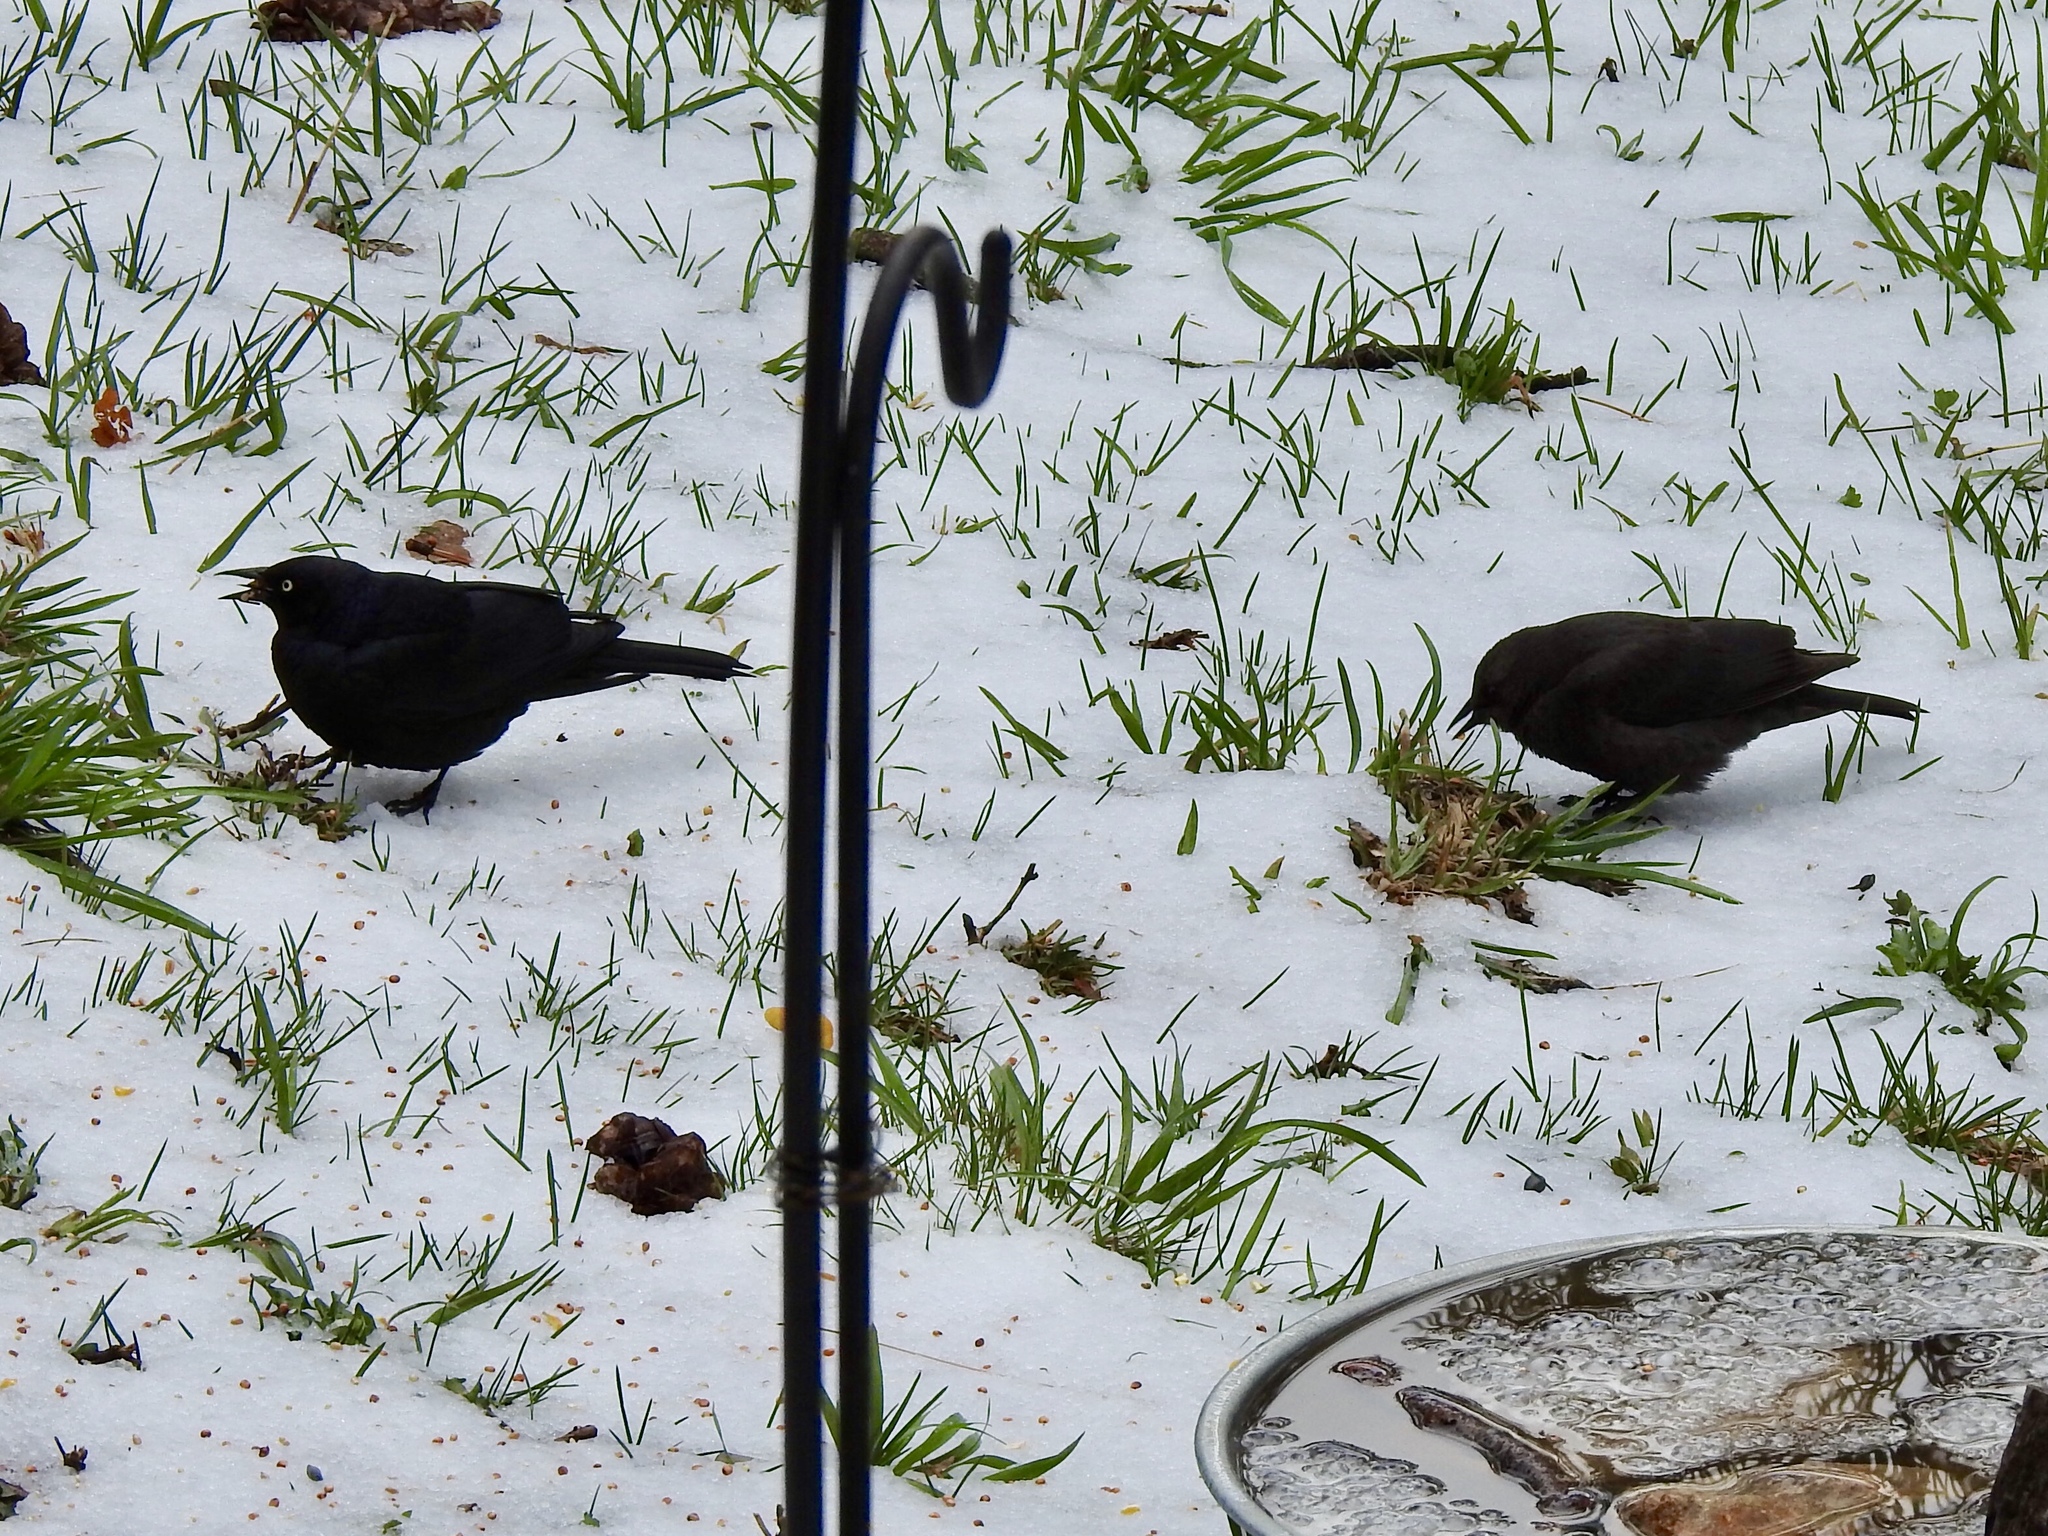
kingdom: Animalia
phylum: Chordata
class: Aves
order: Passeriformes
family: Icteridae
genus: Euphagus
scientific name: Euphagus cyanocephalus
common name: Brewer's blackbird
